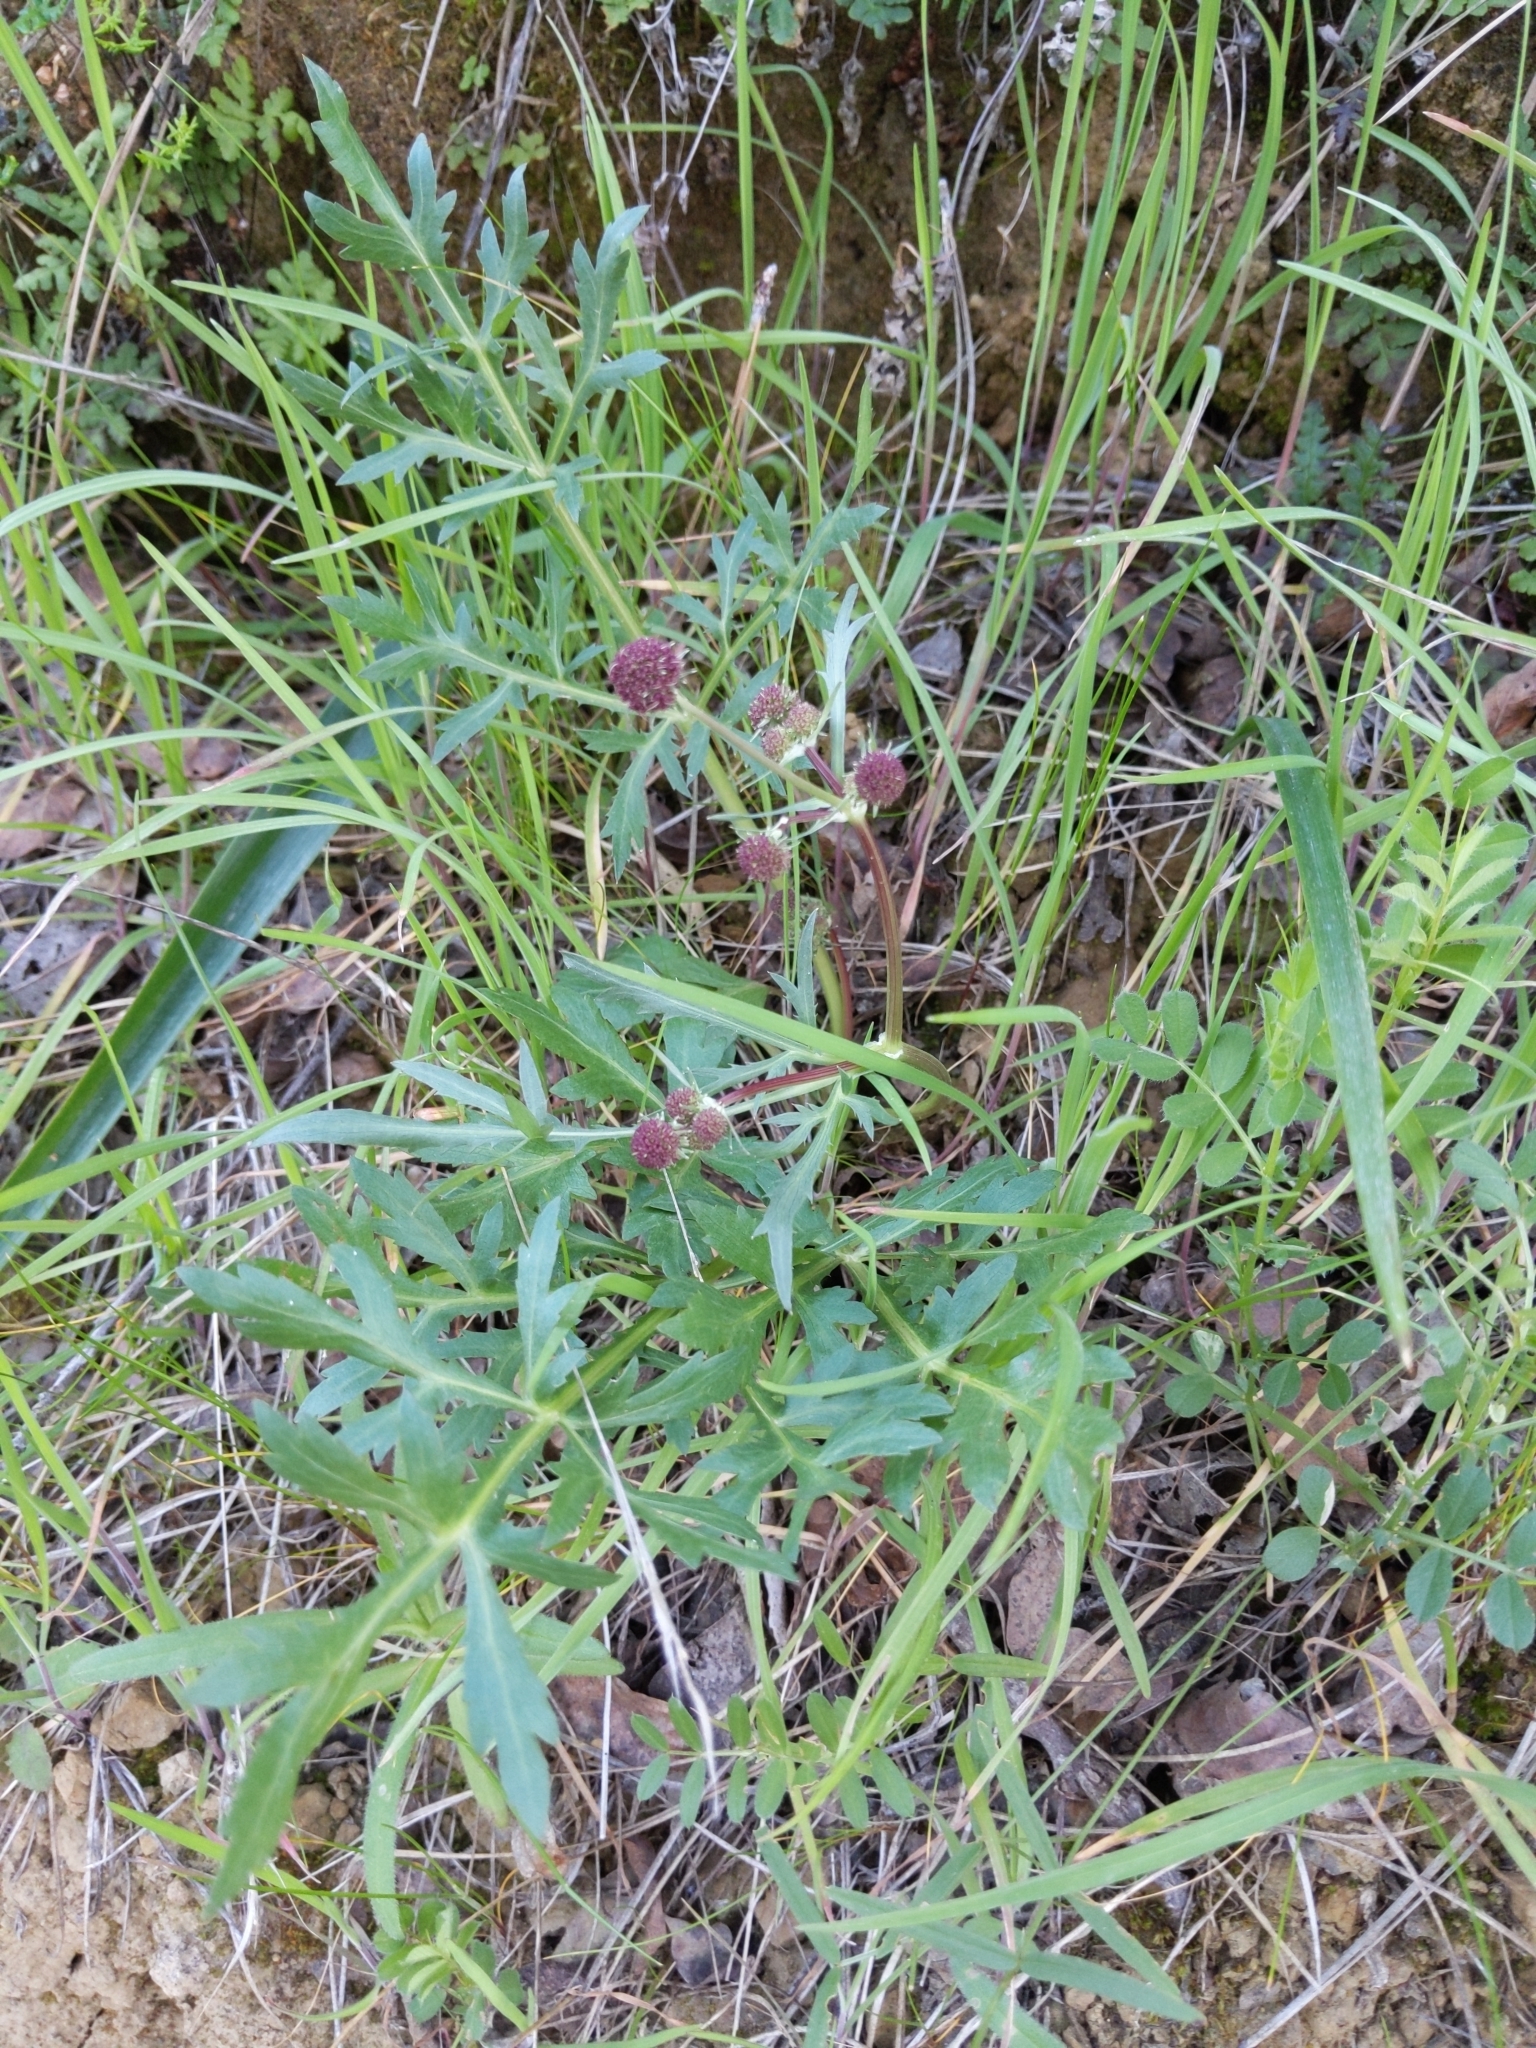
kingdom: Plantae
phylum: Tracheophyta
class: Magnoliopsida
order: Apiales
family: Apiaceae
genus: Sanicula
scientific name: Sanicula bipinnatifida
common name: Shoe-buttons
